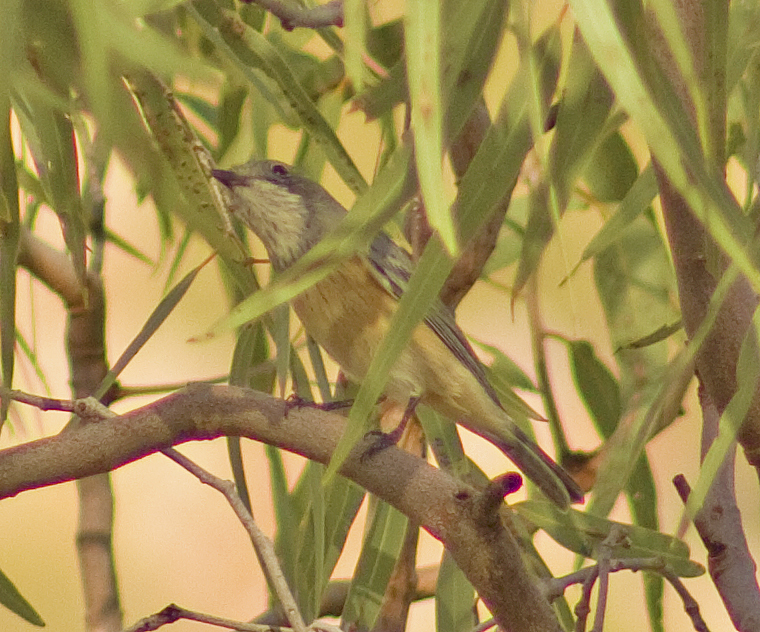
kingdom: Animalia
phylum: Chordata
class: Aves
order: Passeriformes
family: Pachycephalidae
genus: Pachycephala
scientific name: Pachycephala rufiventris
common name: Rufous whistler
